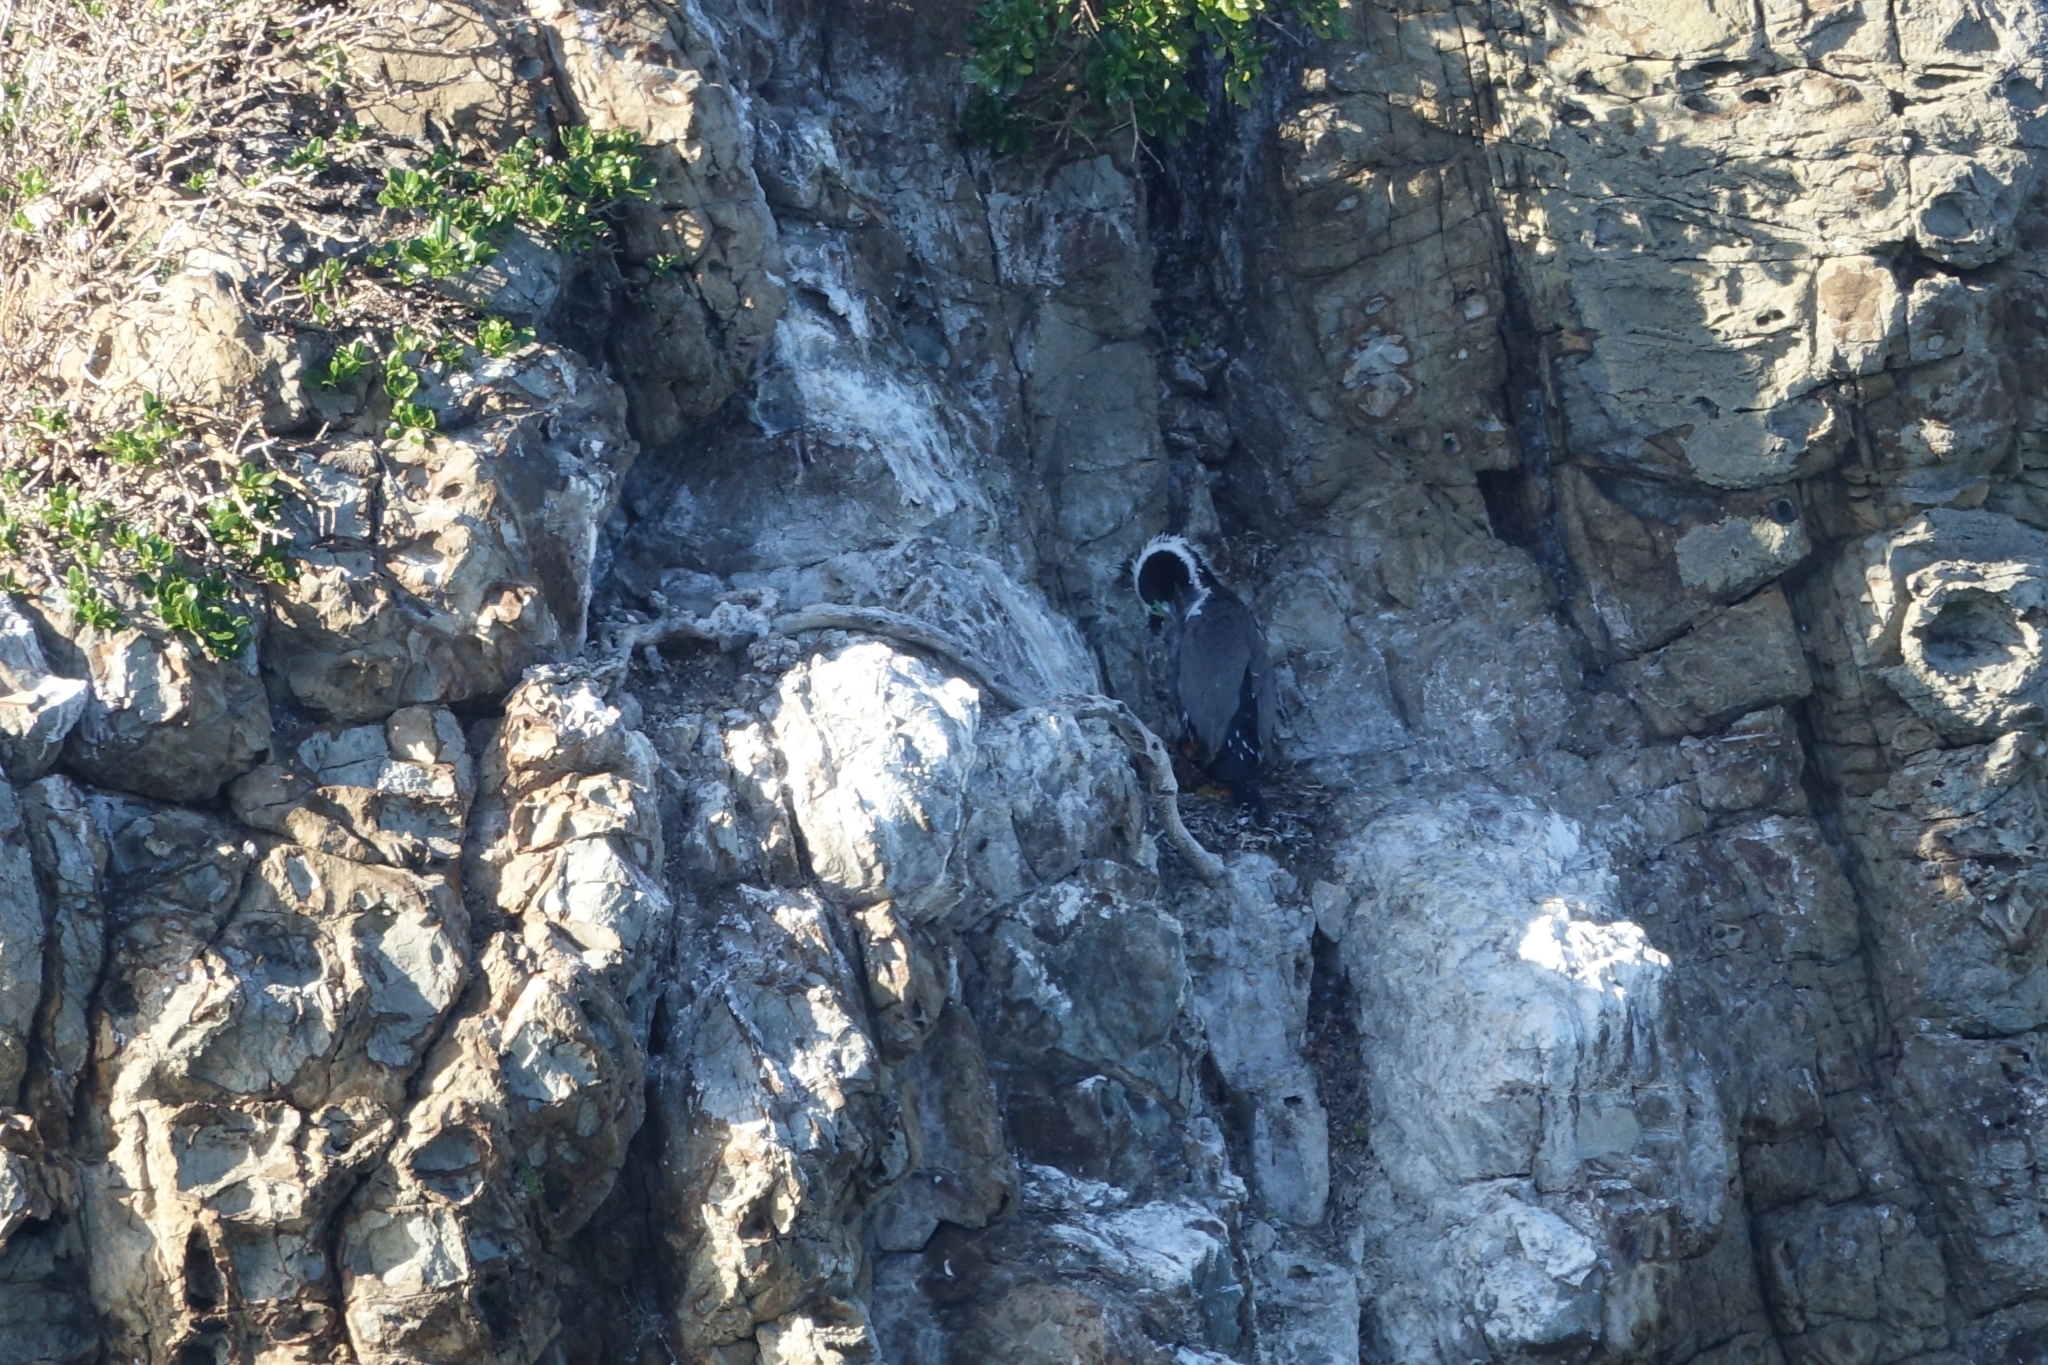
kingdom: Animalia
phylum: Chordata
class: Aves
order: Suliformes
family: Phalacrocoracidae
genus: Phalacrocorax
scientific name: Phalacrocorax punctatus
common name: Spotted shag
